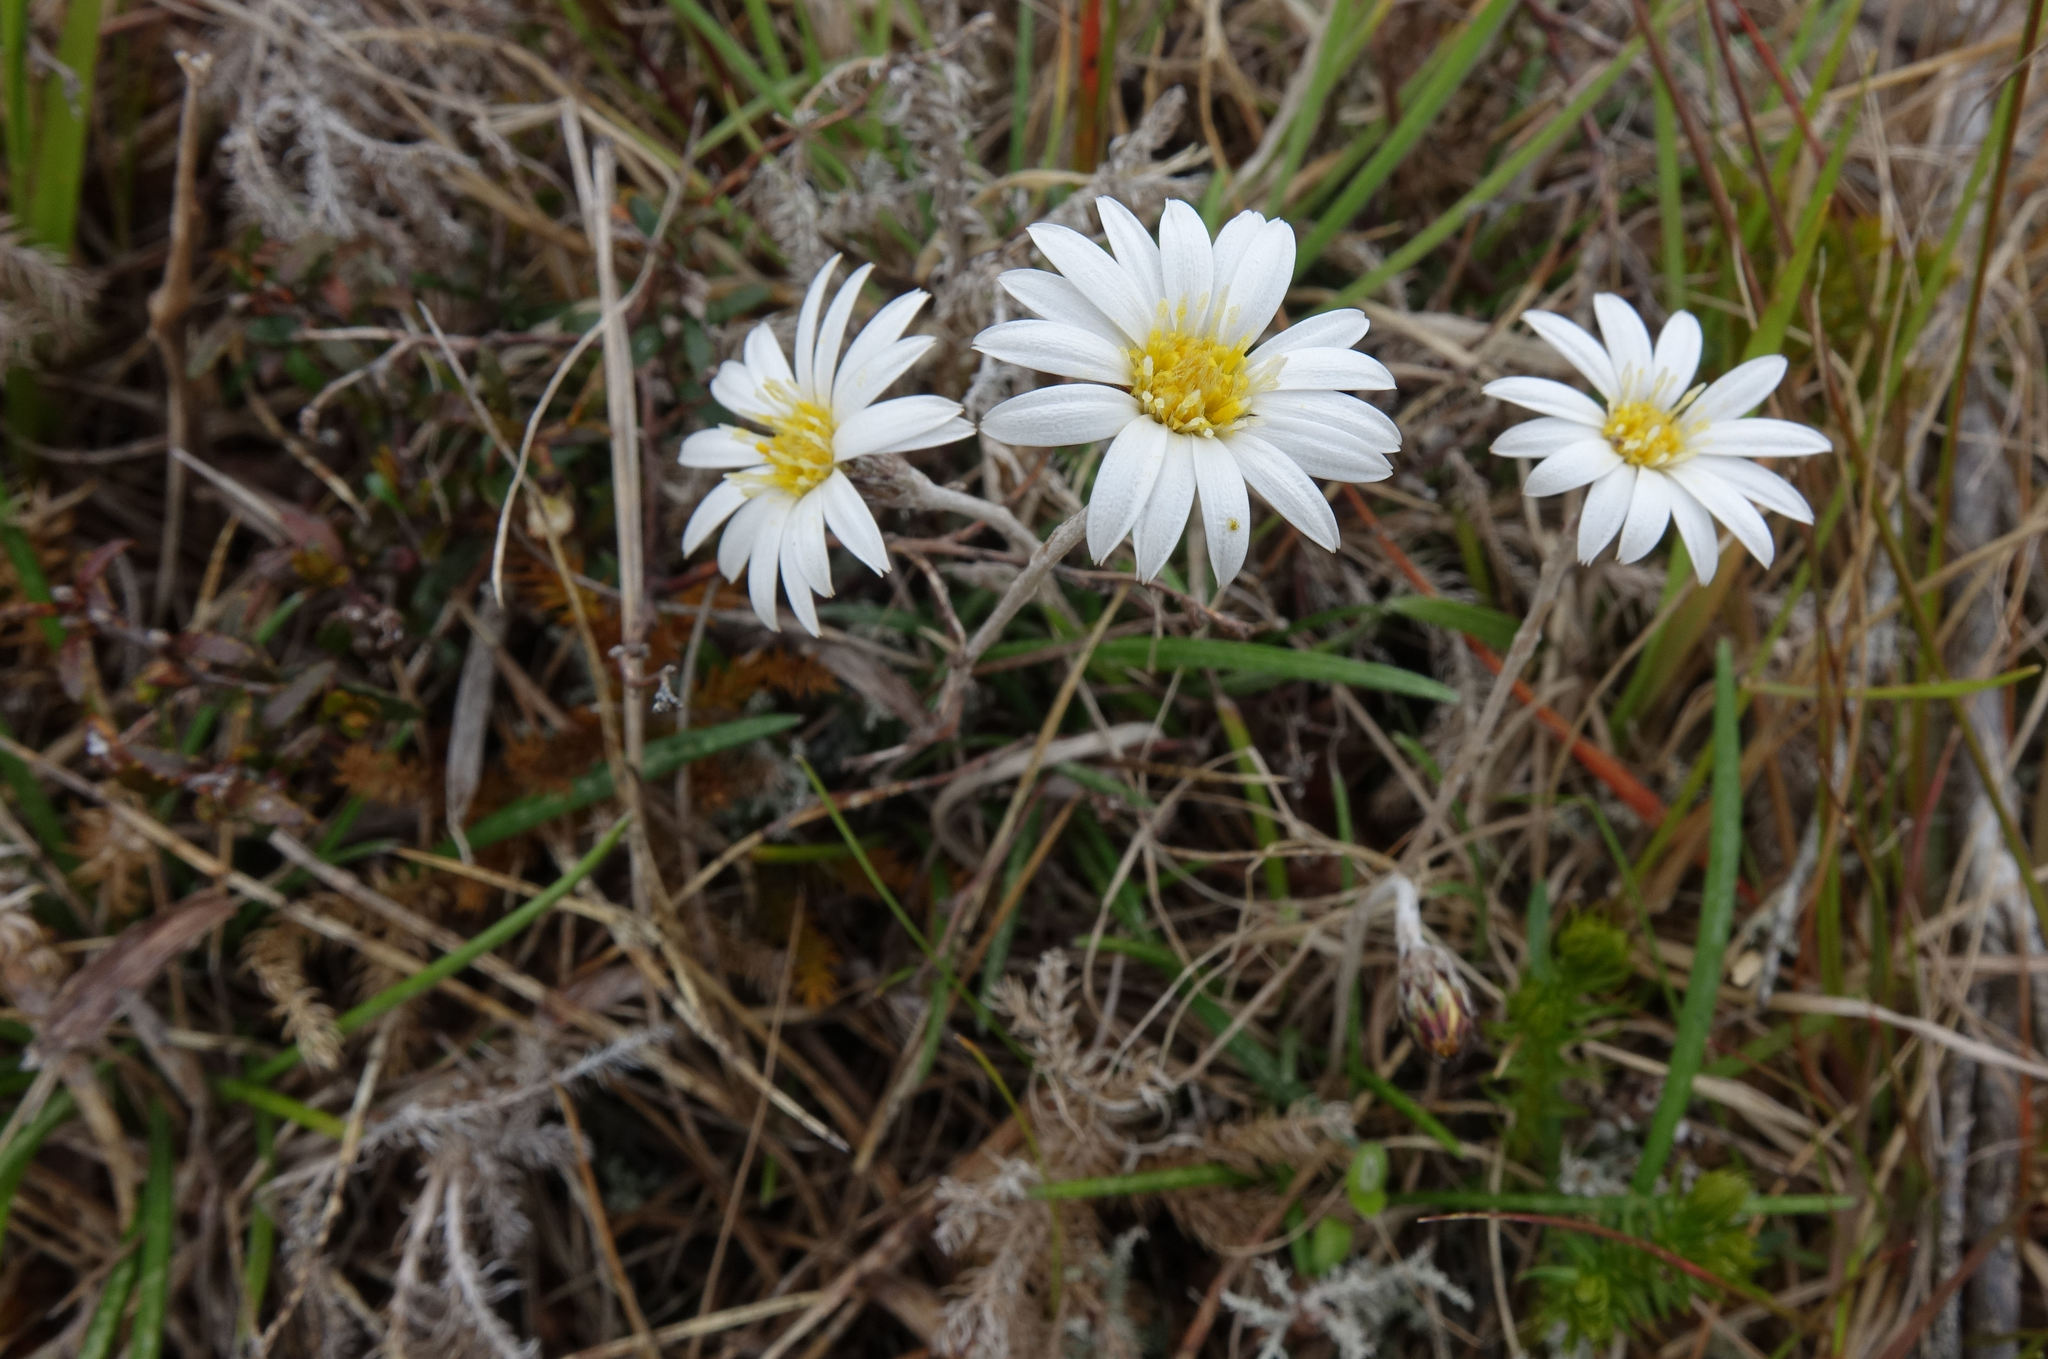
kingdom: Plantae
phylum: Tracheophyta
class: Magnoliopsida
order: Asterales
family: Asteraceae
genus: Celmisia
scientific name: Celmisia gracilenta
